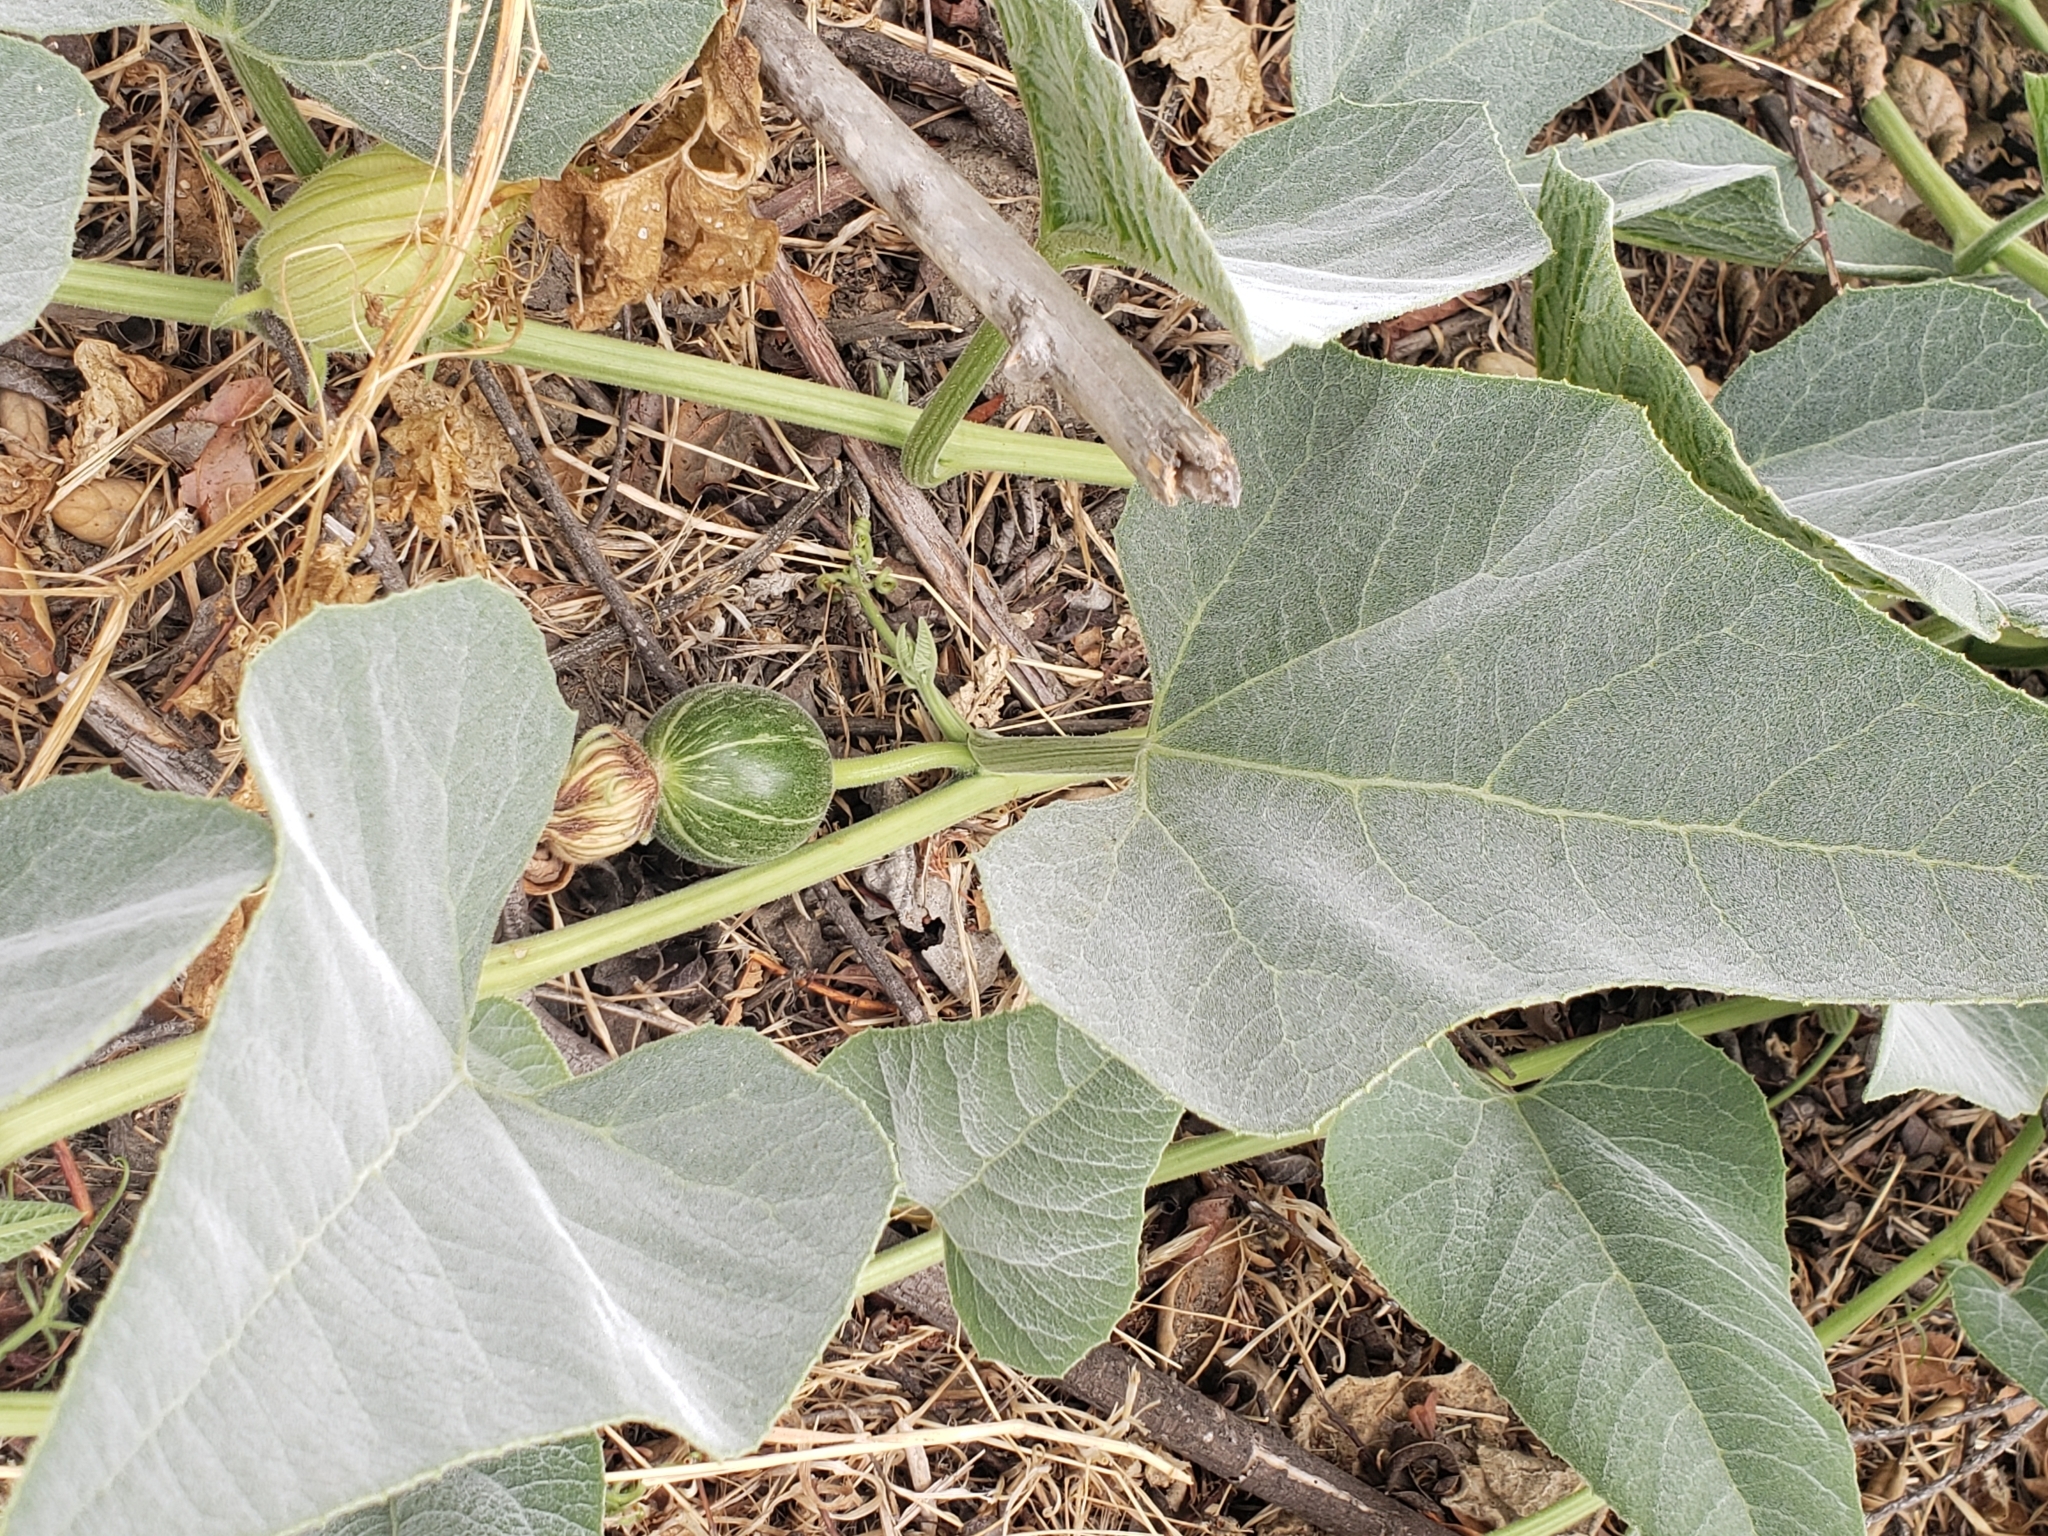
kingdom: Plantae
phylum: Tracheophyta
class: Magnoliopsida
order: Cucurbitales
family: Cucurbitaceae
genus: Cucurbita
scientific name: Cucurbita foetidissima
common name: Buffalo gourd
